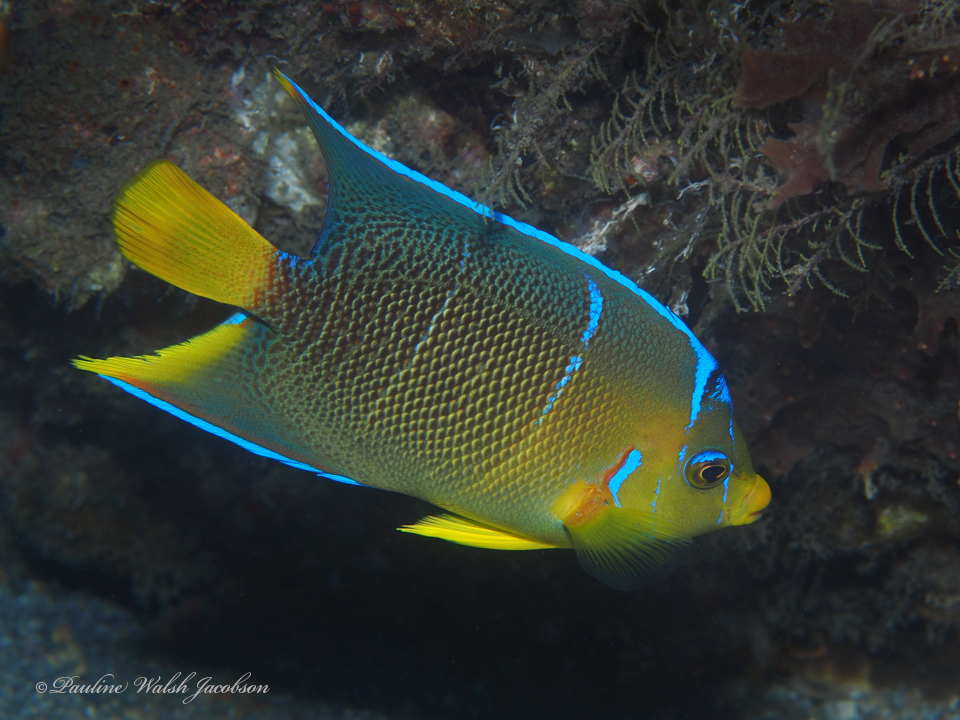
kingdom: Animalia
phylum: Chordata
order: Perciformes
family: Pomacanthidae
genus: Holacanthus
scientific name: Holacanthus ciliaris
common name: Queen angelfish
